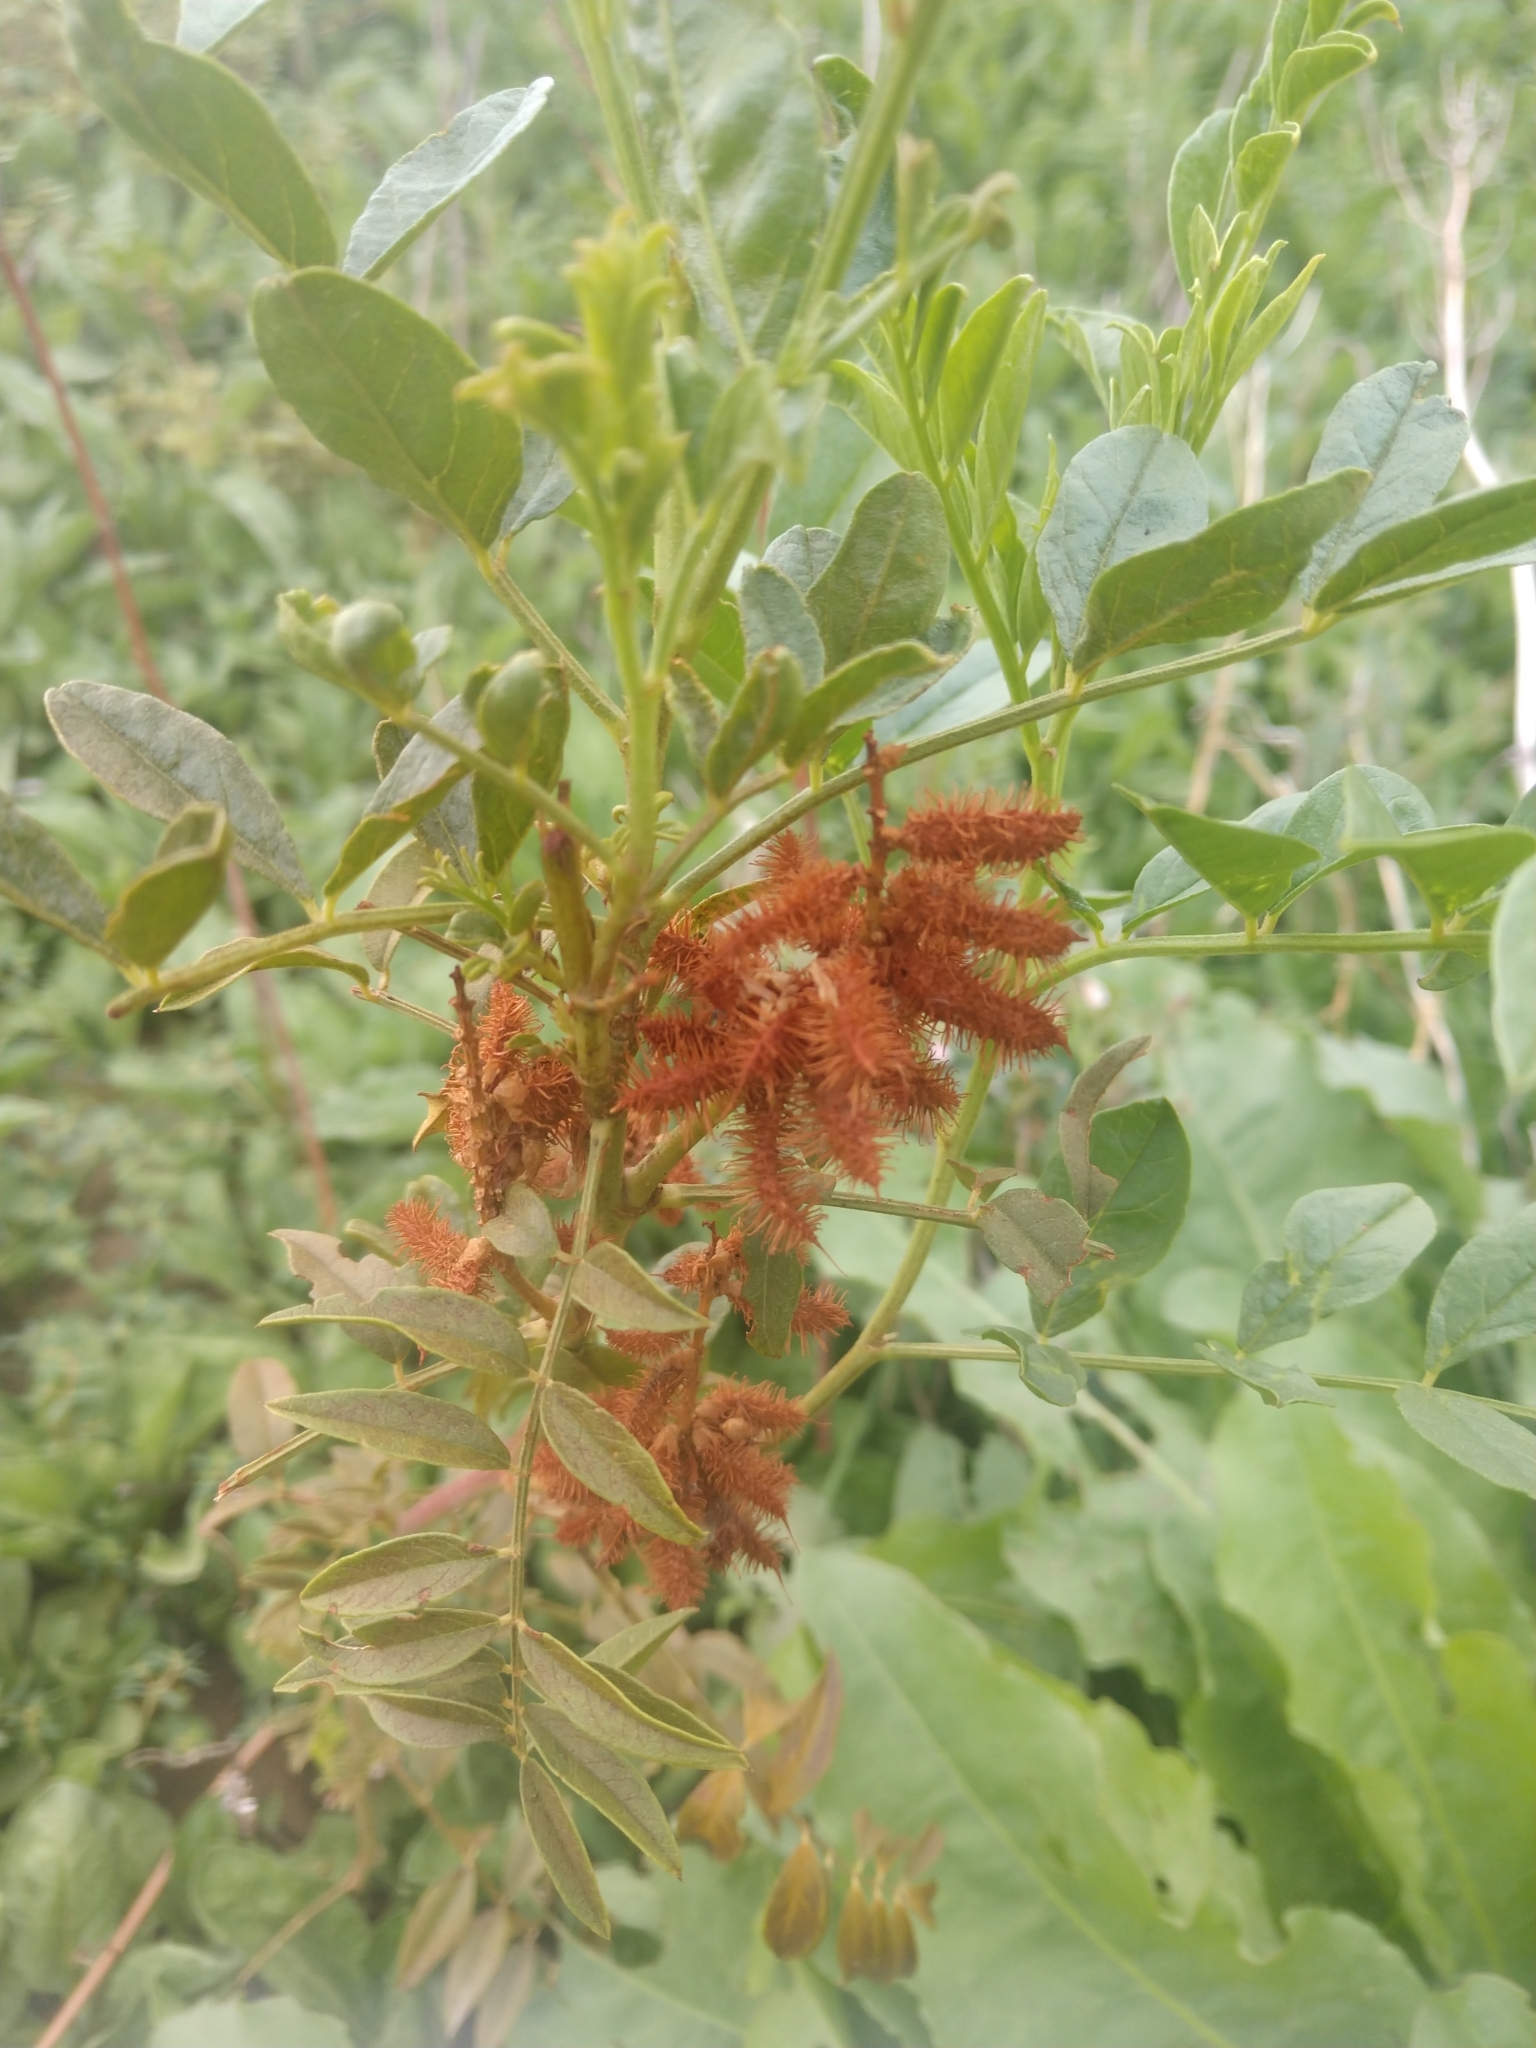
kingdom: Plantae
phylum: Tracheophyta
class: Magnoliopsida
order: Fabales
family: Fabaceae
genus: Glycyrrhiza
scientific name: Glycyrrhiza lepidota
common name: American liquorice
